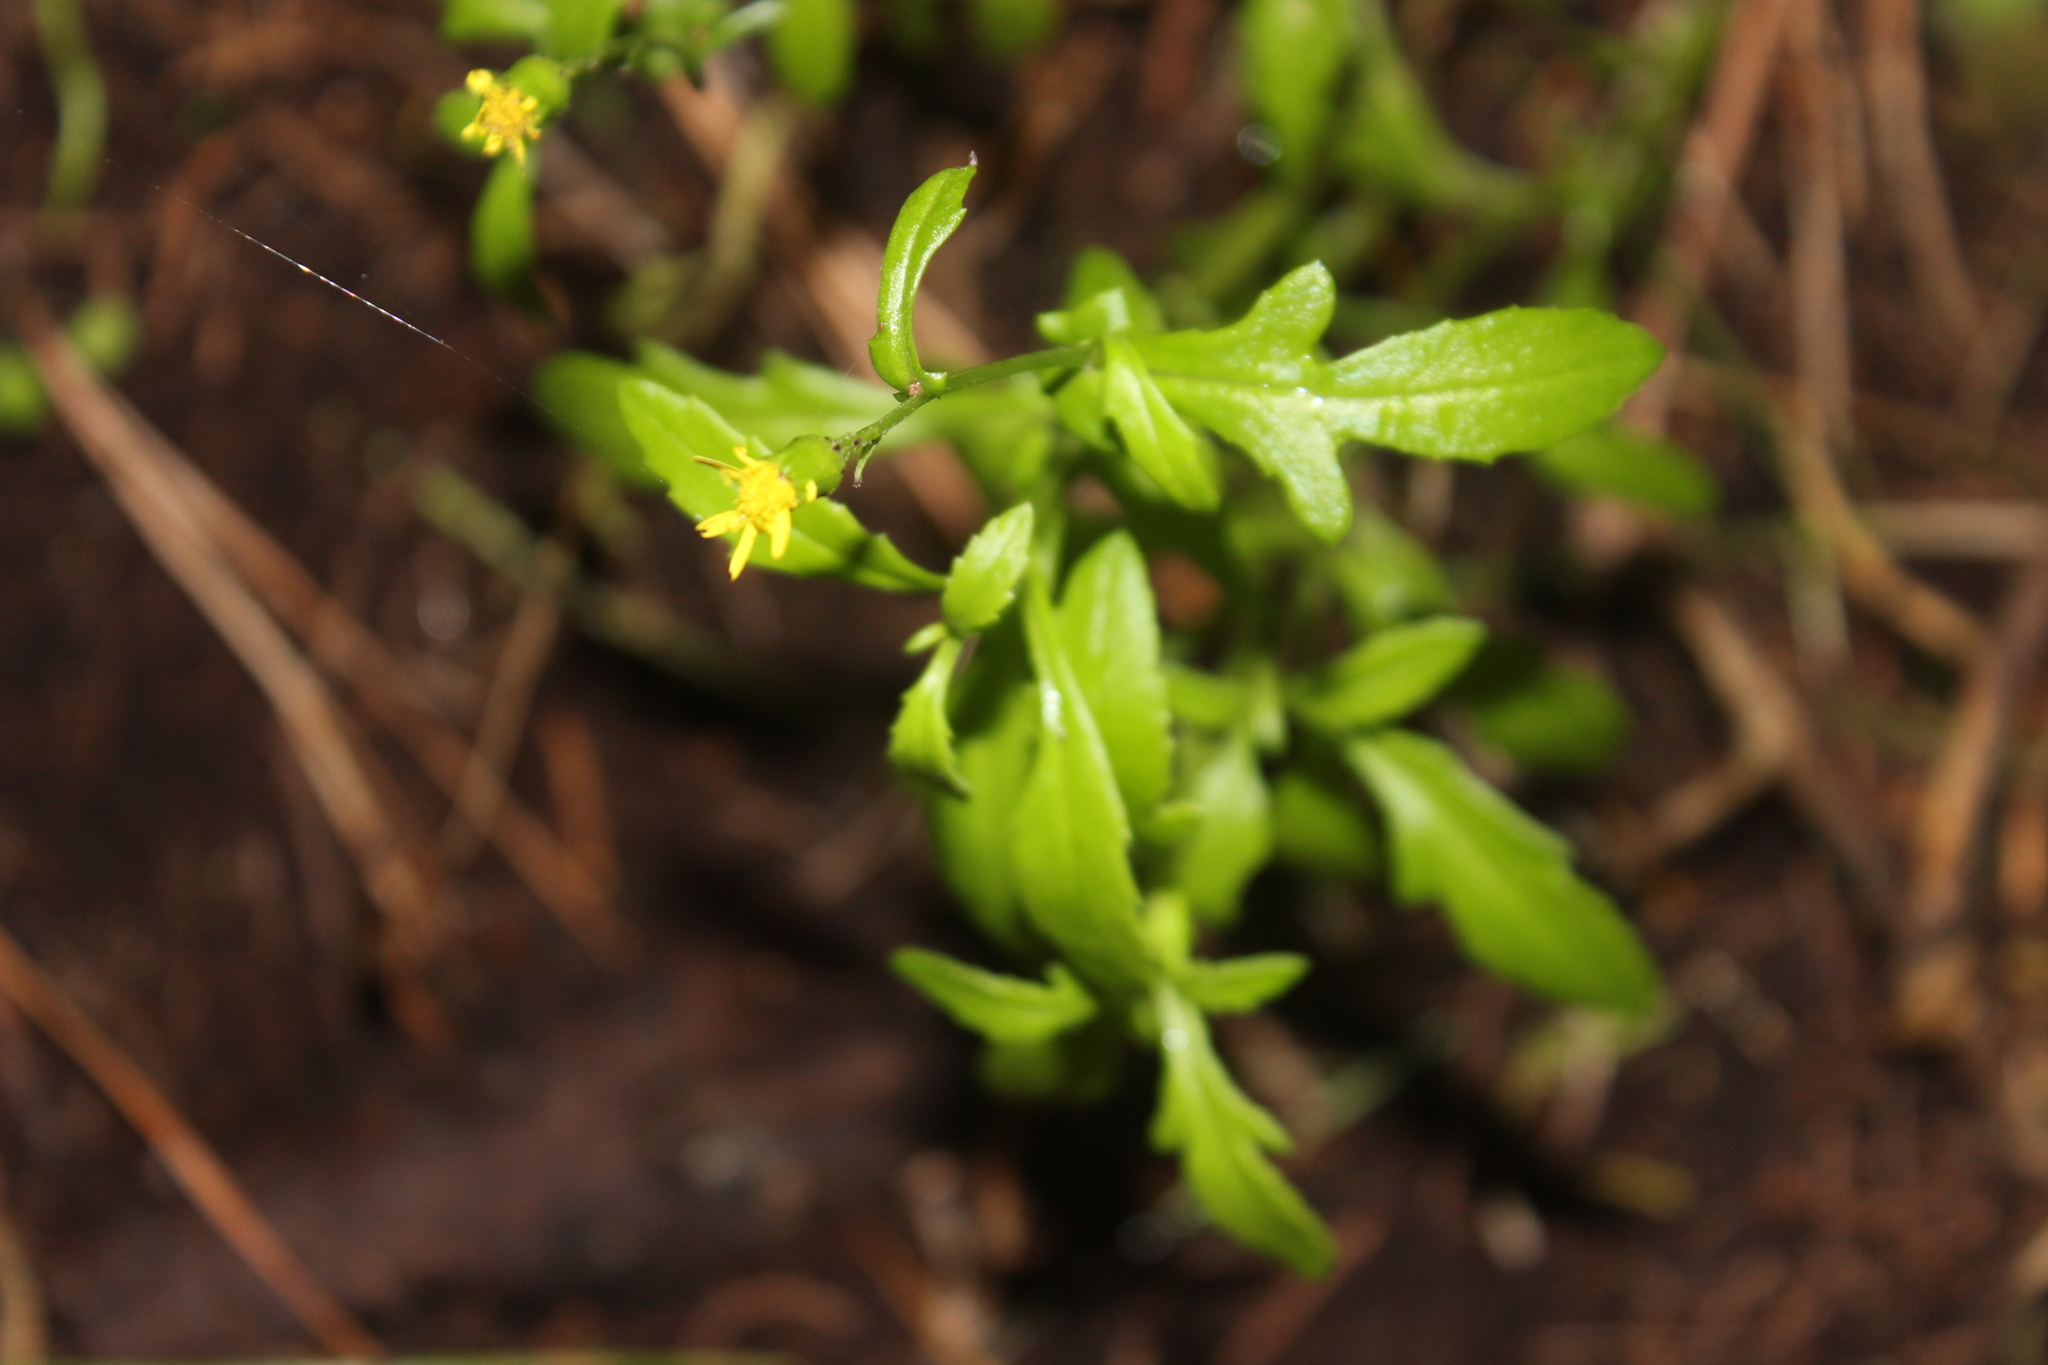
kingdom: Plantae
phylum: Tracheophyta
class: Magnoliopsida
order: Asterales
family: Asteraceae
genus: Senecio
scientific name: Senecio lautus
